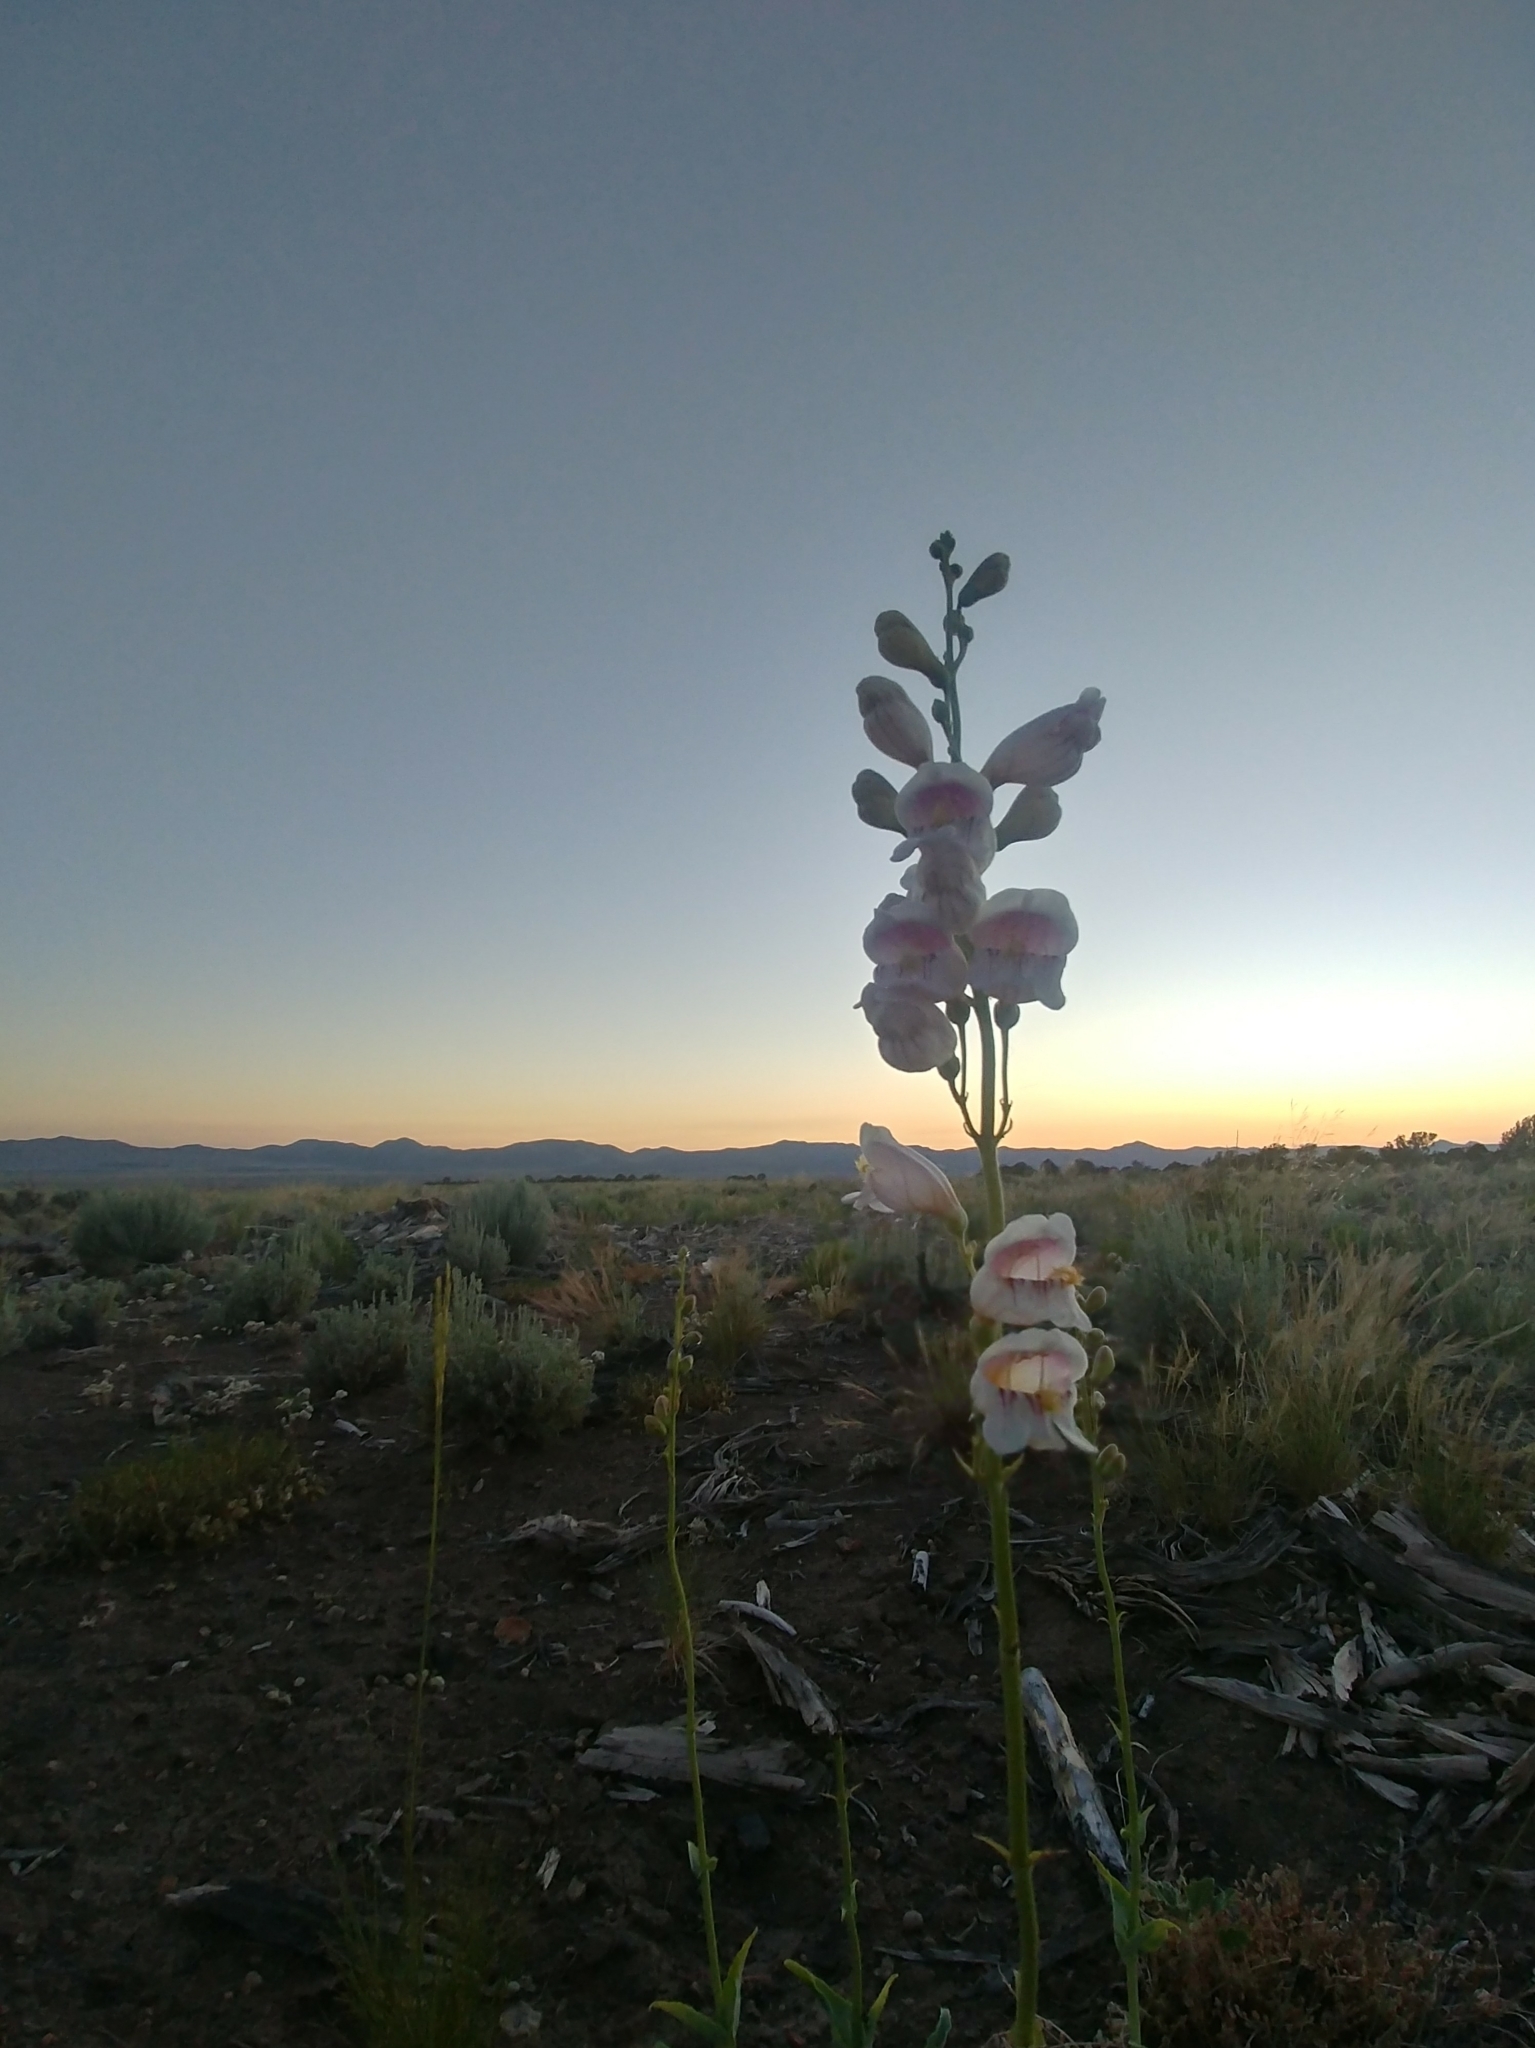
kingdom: Plantae
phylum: Tracheophyta
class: Magnoliopsida
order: Lamiales
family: Plantaginaceae
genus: Penstemon
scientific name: Penstemon palmeri
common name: Palmer penstemon
